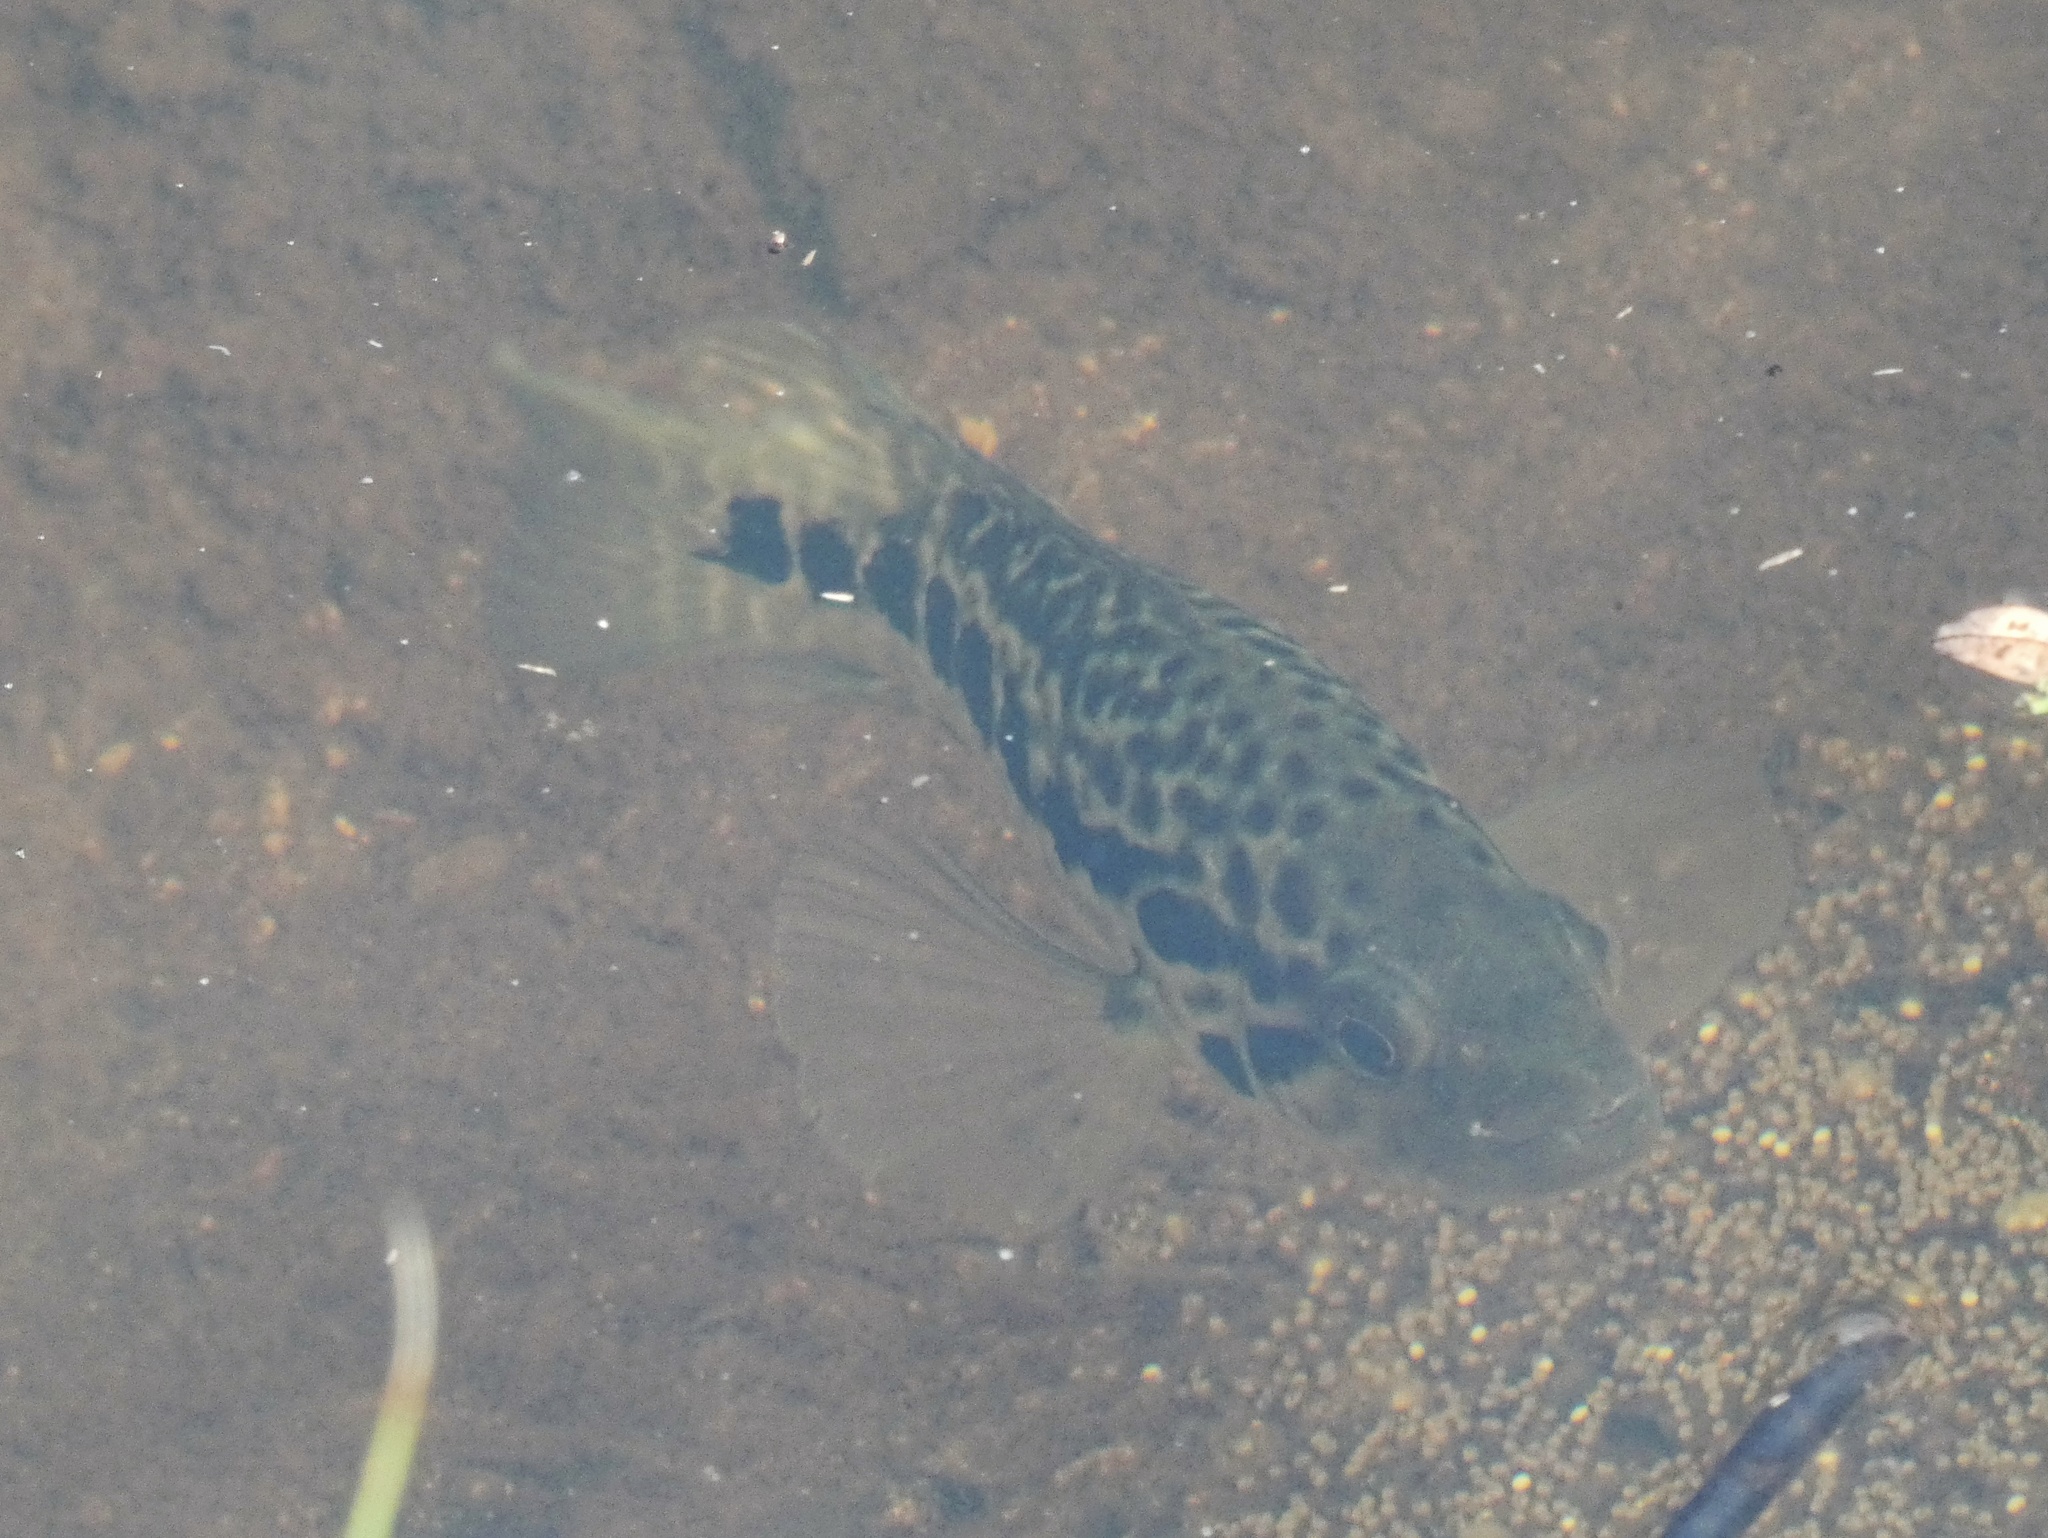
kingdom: Animalia
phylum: Chordata
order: Perciformes
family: Cichlidae
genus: Parachromis
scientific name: Parachromis managuensis
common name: Jaguar guapote
